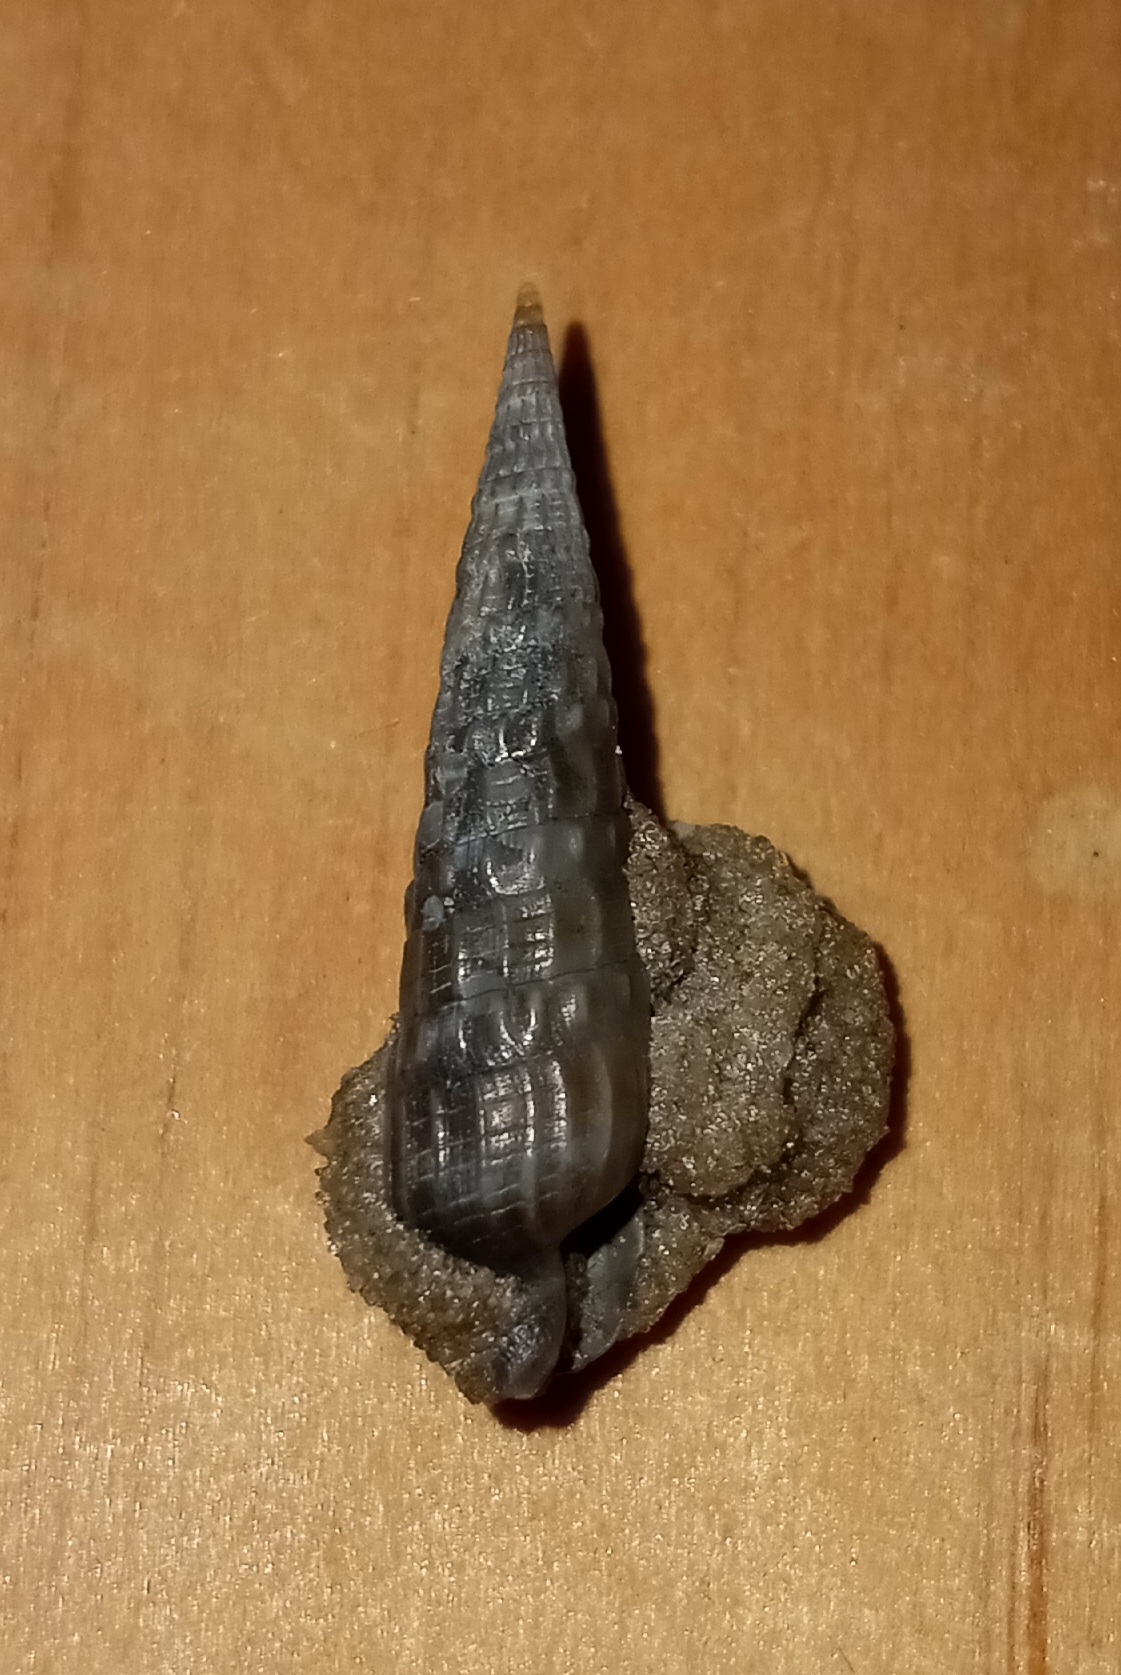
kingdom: Animalia
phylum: Mollusca
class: Gastropoda
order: Neogastropoda
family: Terebridae
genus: Neoterebra
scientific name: Neoterebra dislocata
